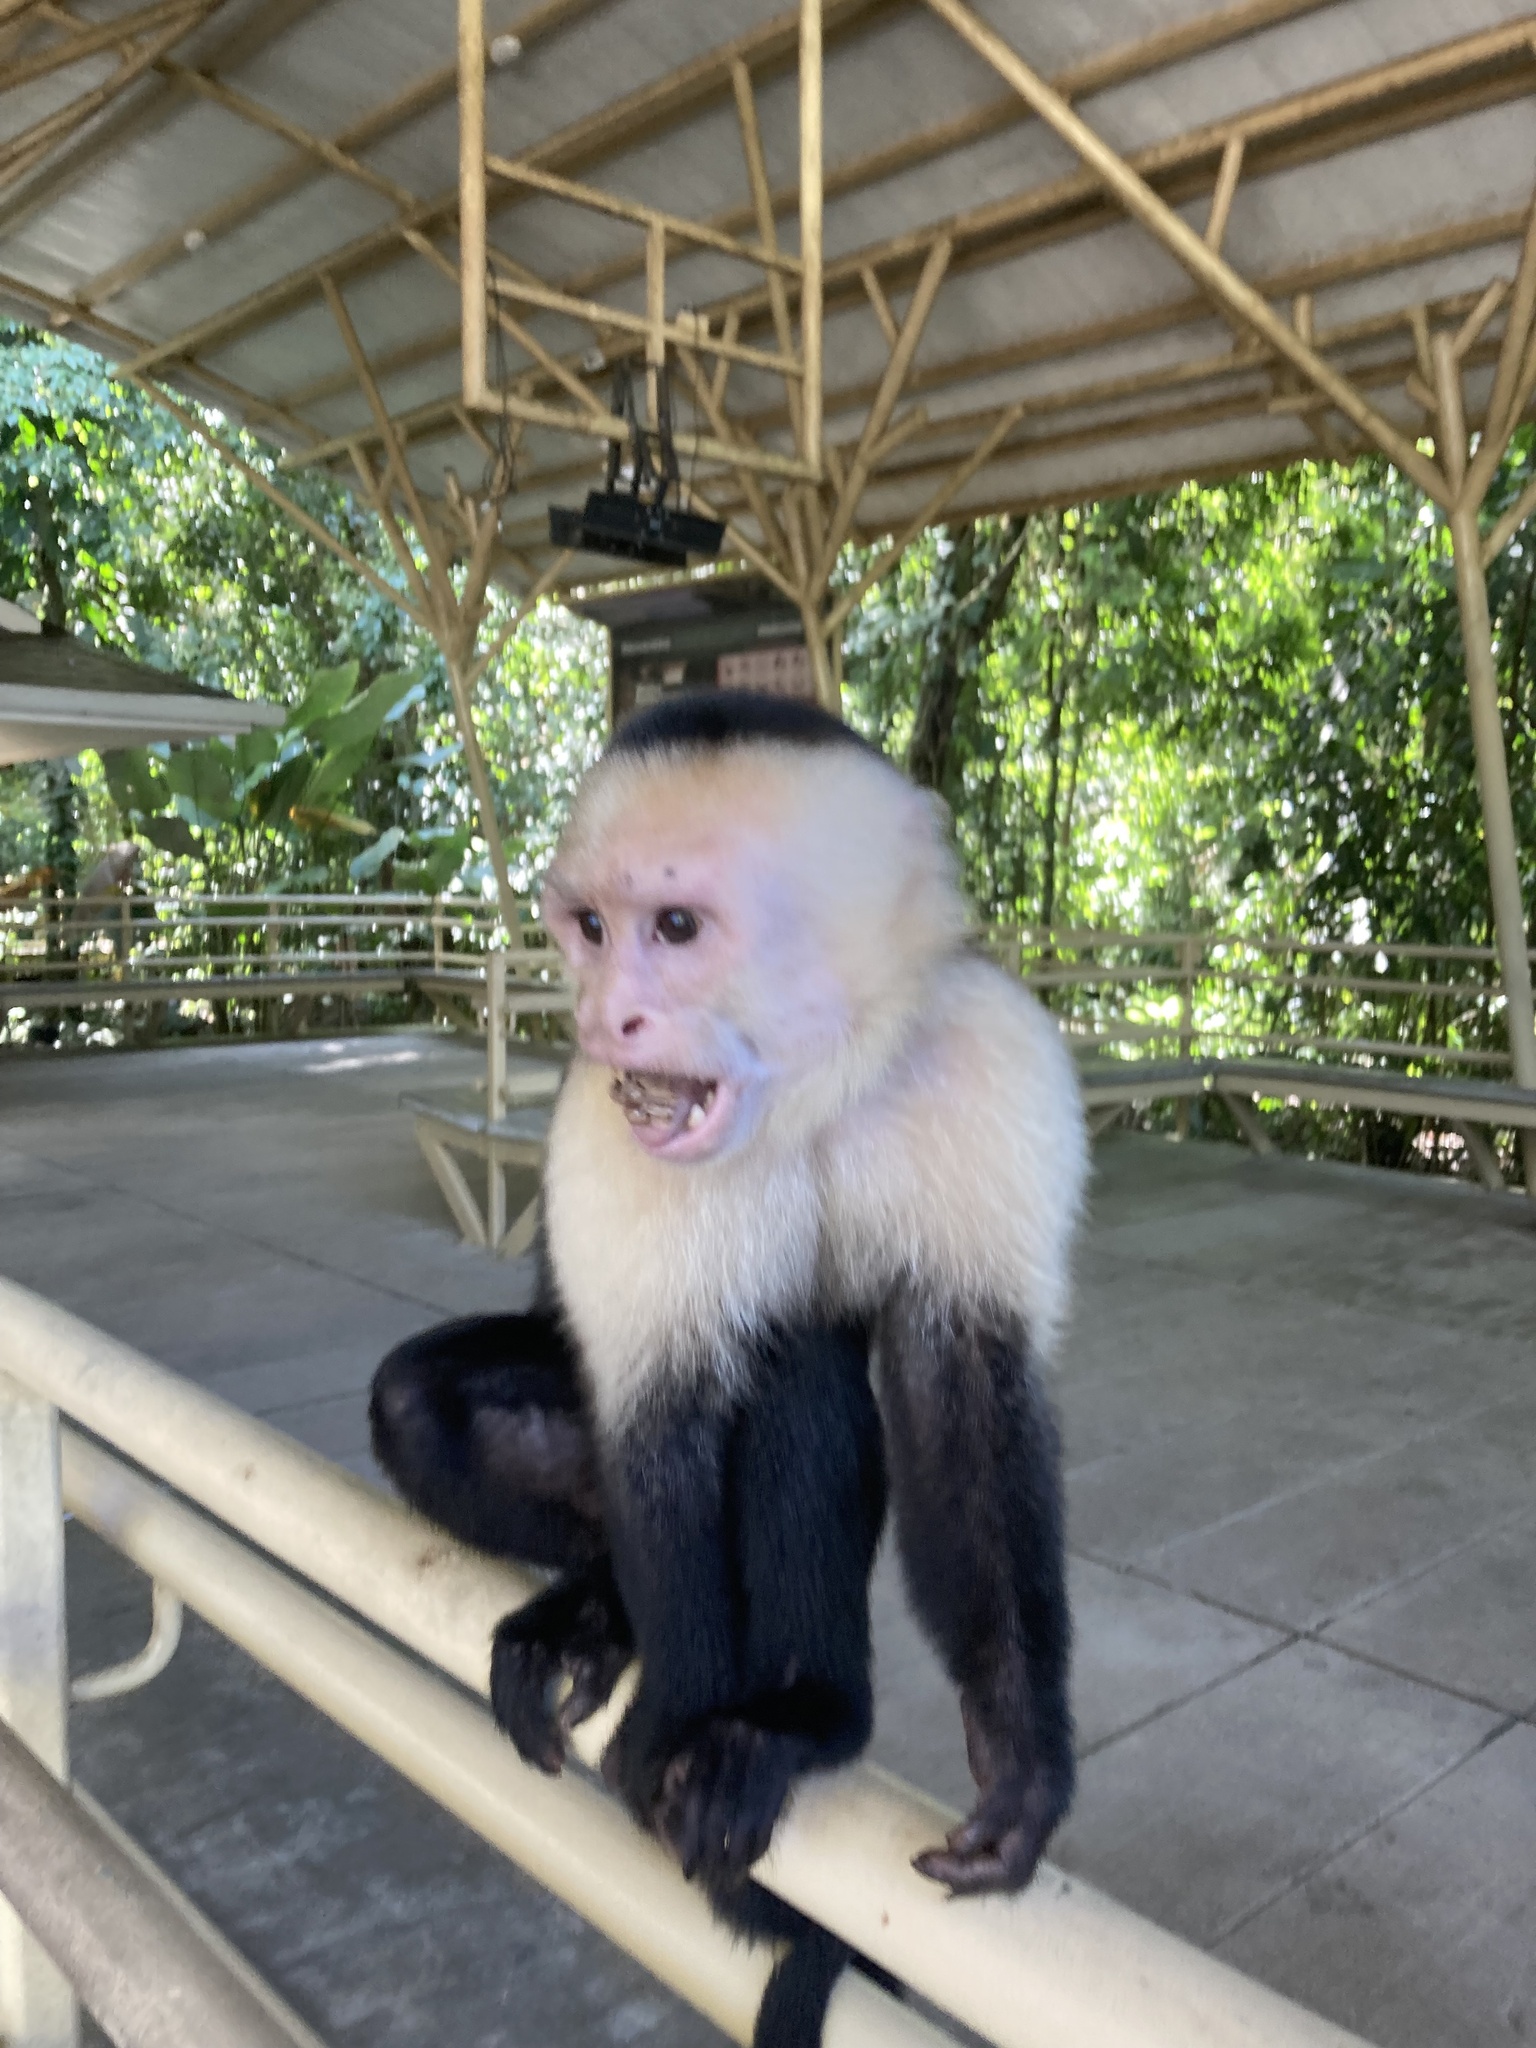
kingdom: Animalia
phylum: Chordata
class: Mammalia
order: Primates
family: Cebidae
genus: Cebus
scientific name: Cebus imitator
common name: Panamanian white-faced capuchin
